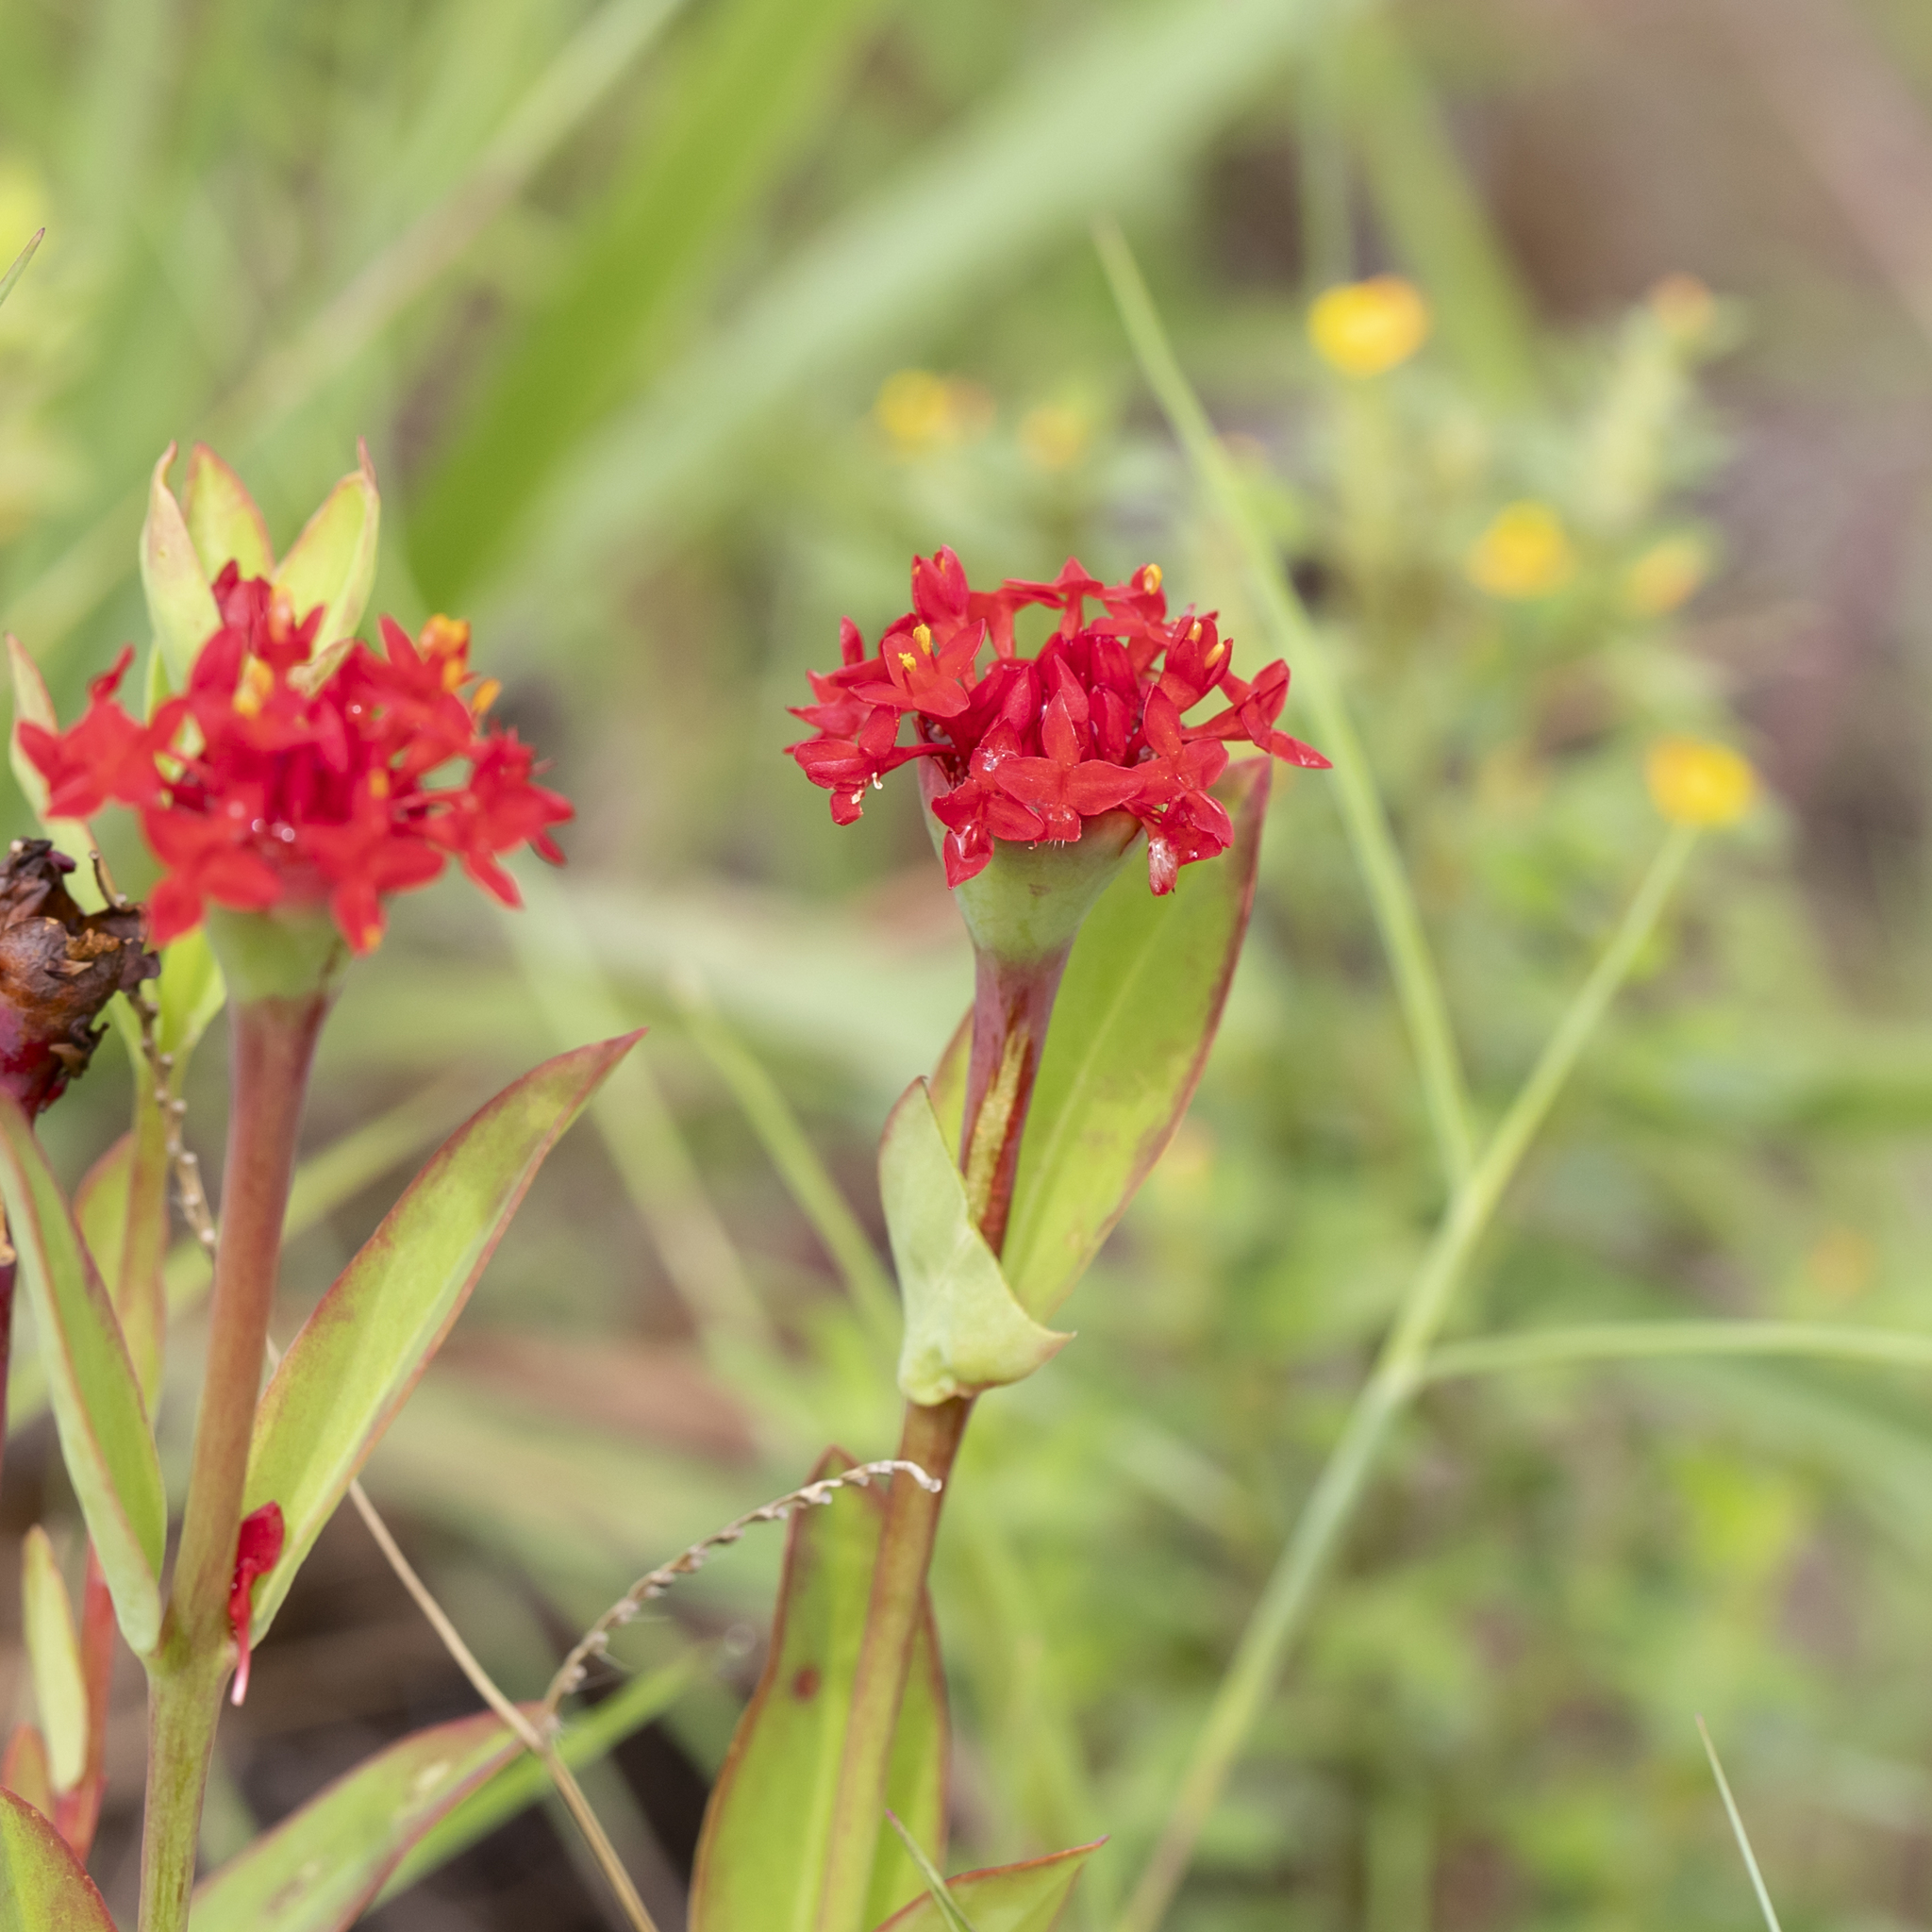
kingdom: Plantae
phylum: Tracheophyta
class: Magnoliopsida
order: Malvales
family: Thymelaeaceae
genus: Pimelea
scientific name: Pimelea punicea
